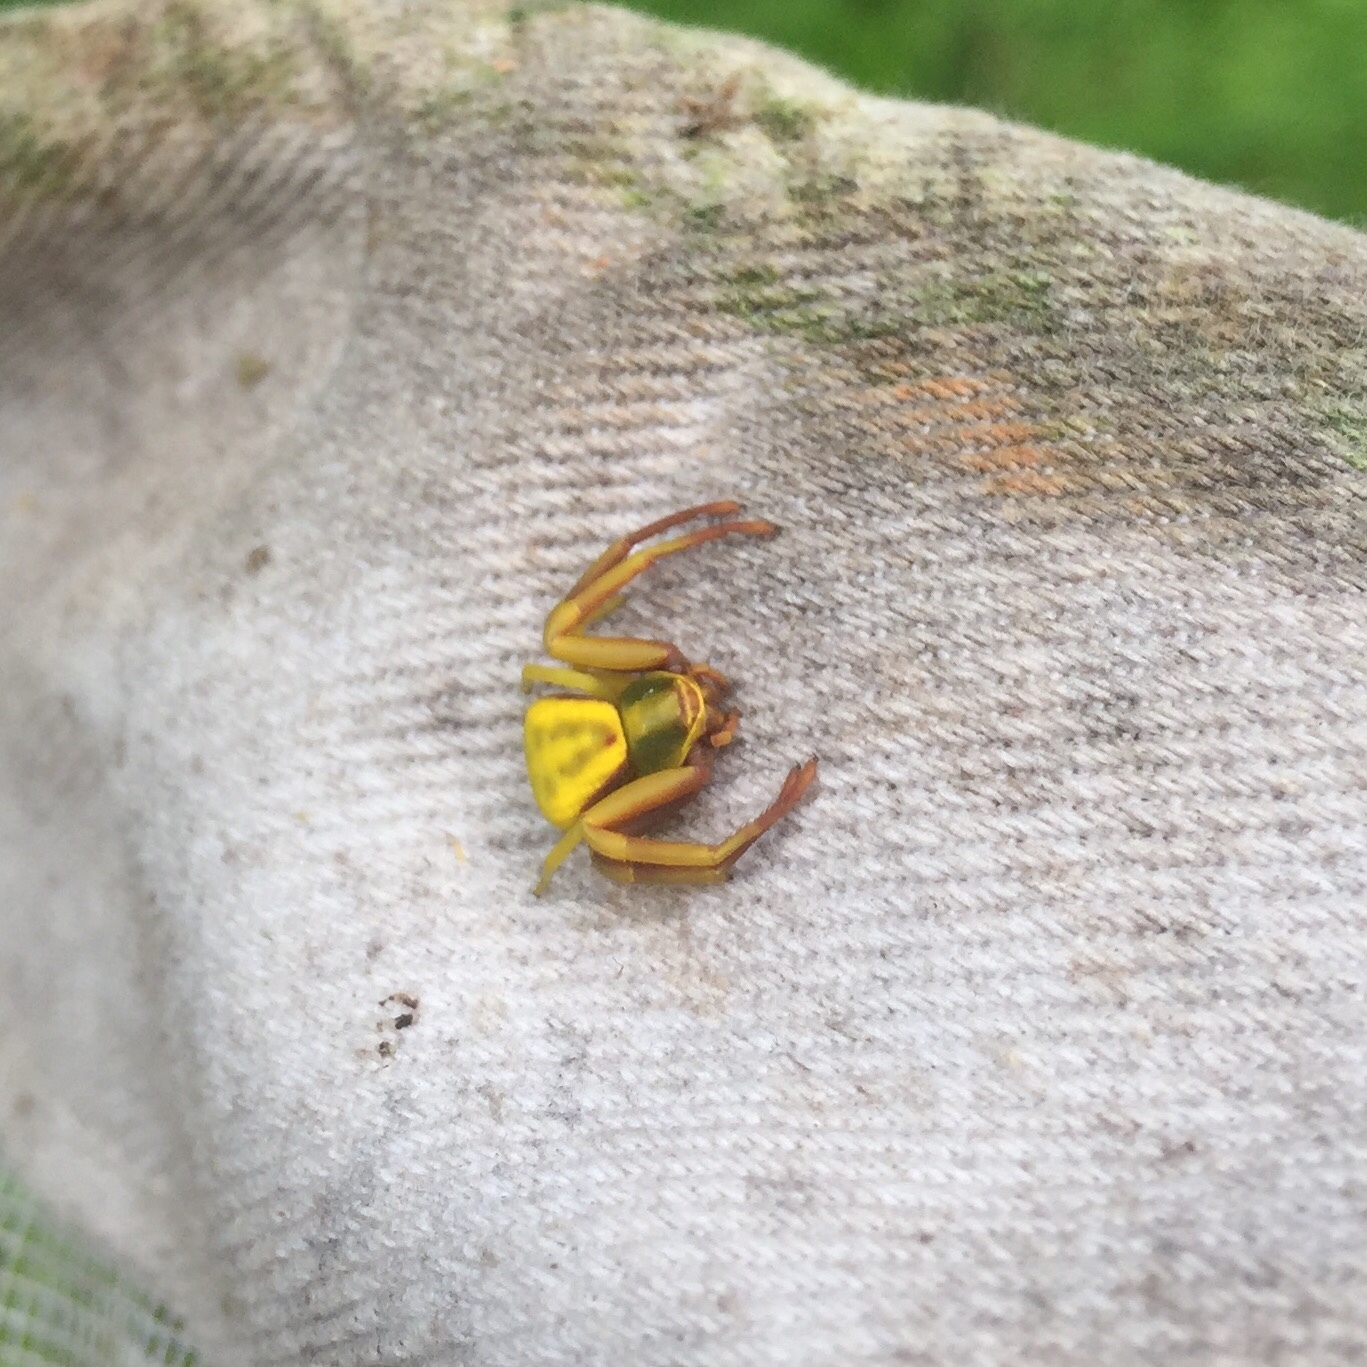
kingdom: Animalia
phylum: Arthropoda
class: Arachnida
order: Araneae
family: Thomisidae
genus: Misumenoides
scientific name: Misumenoides formosipes
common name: White-banded crab spider
